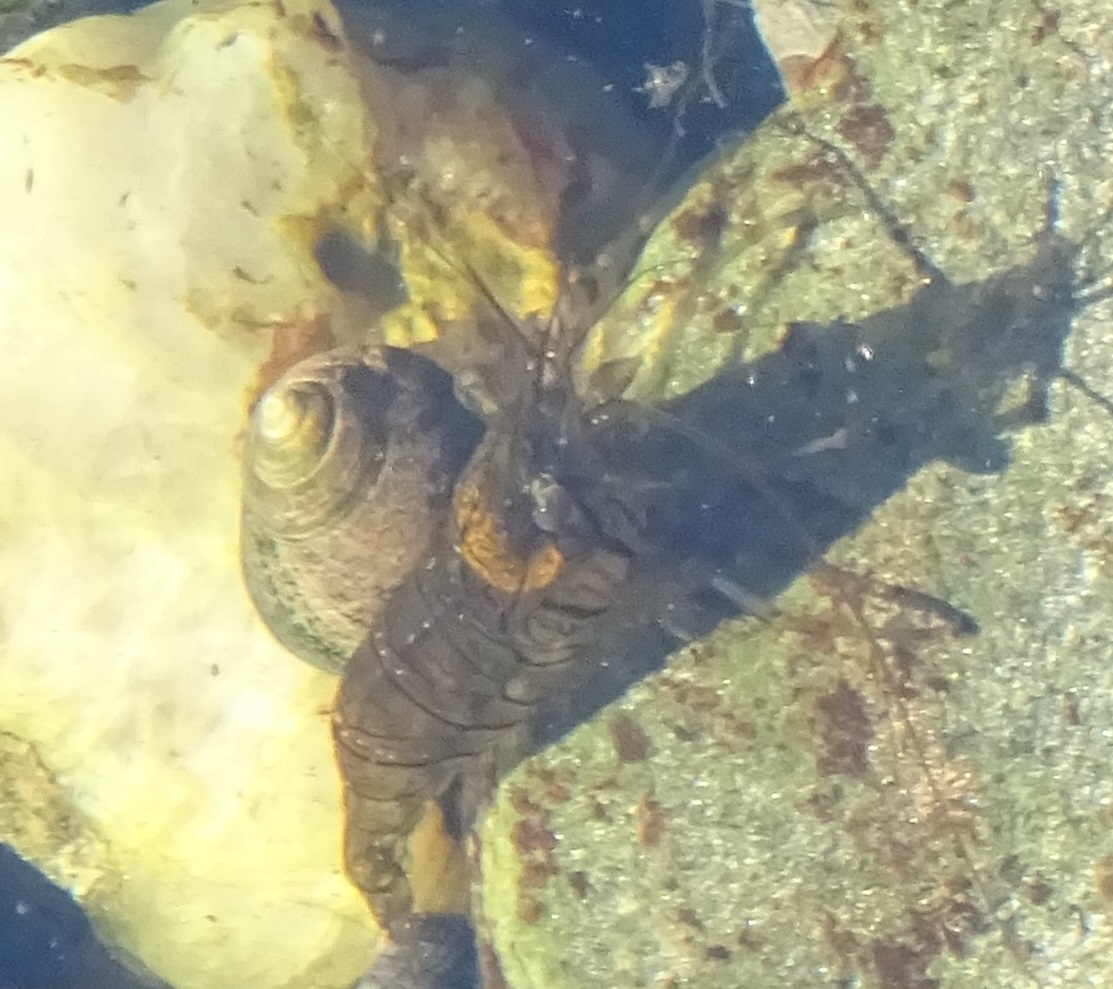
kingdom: Animalia
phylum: Arthropoda
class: Malacostraca
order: Decapoda
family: Palaemonidae
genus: Palaemon
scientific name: Palaemon elegans
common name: Grass prawm
